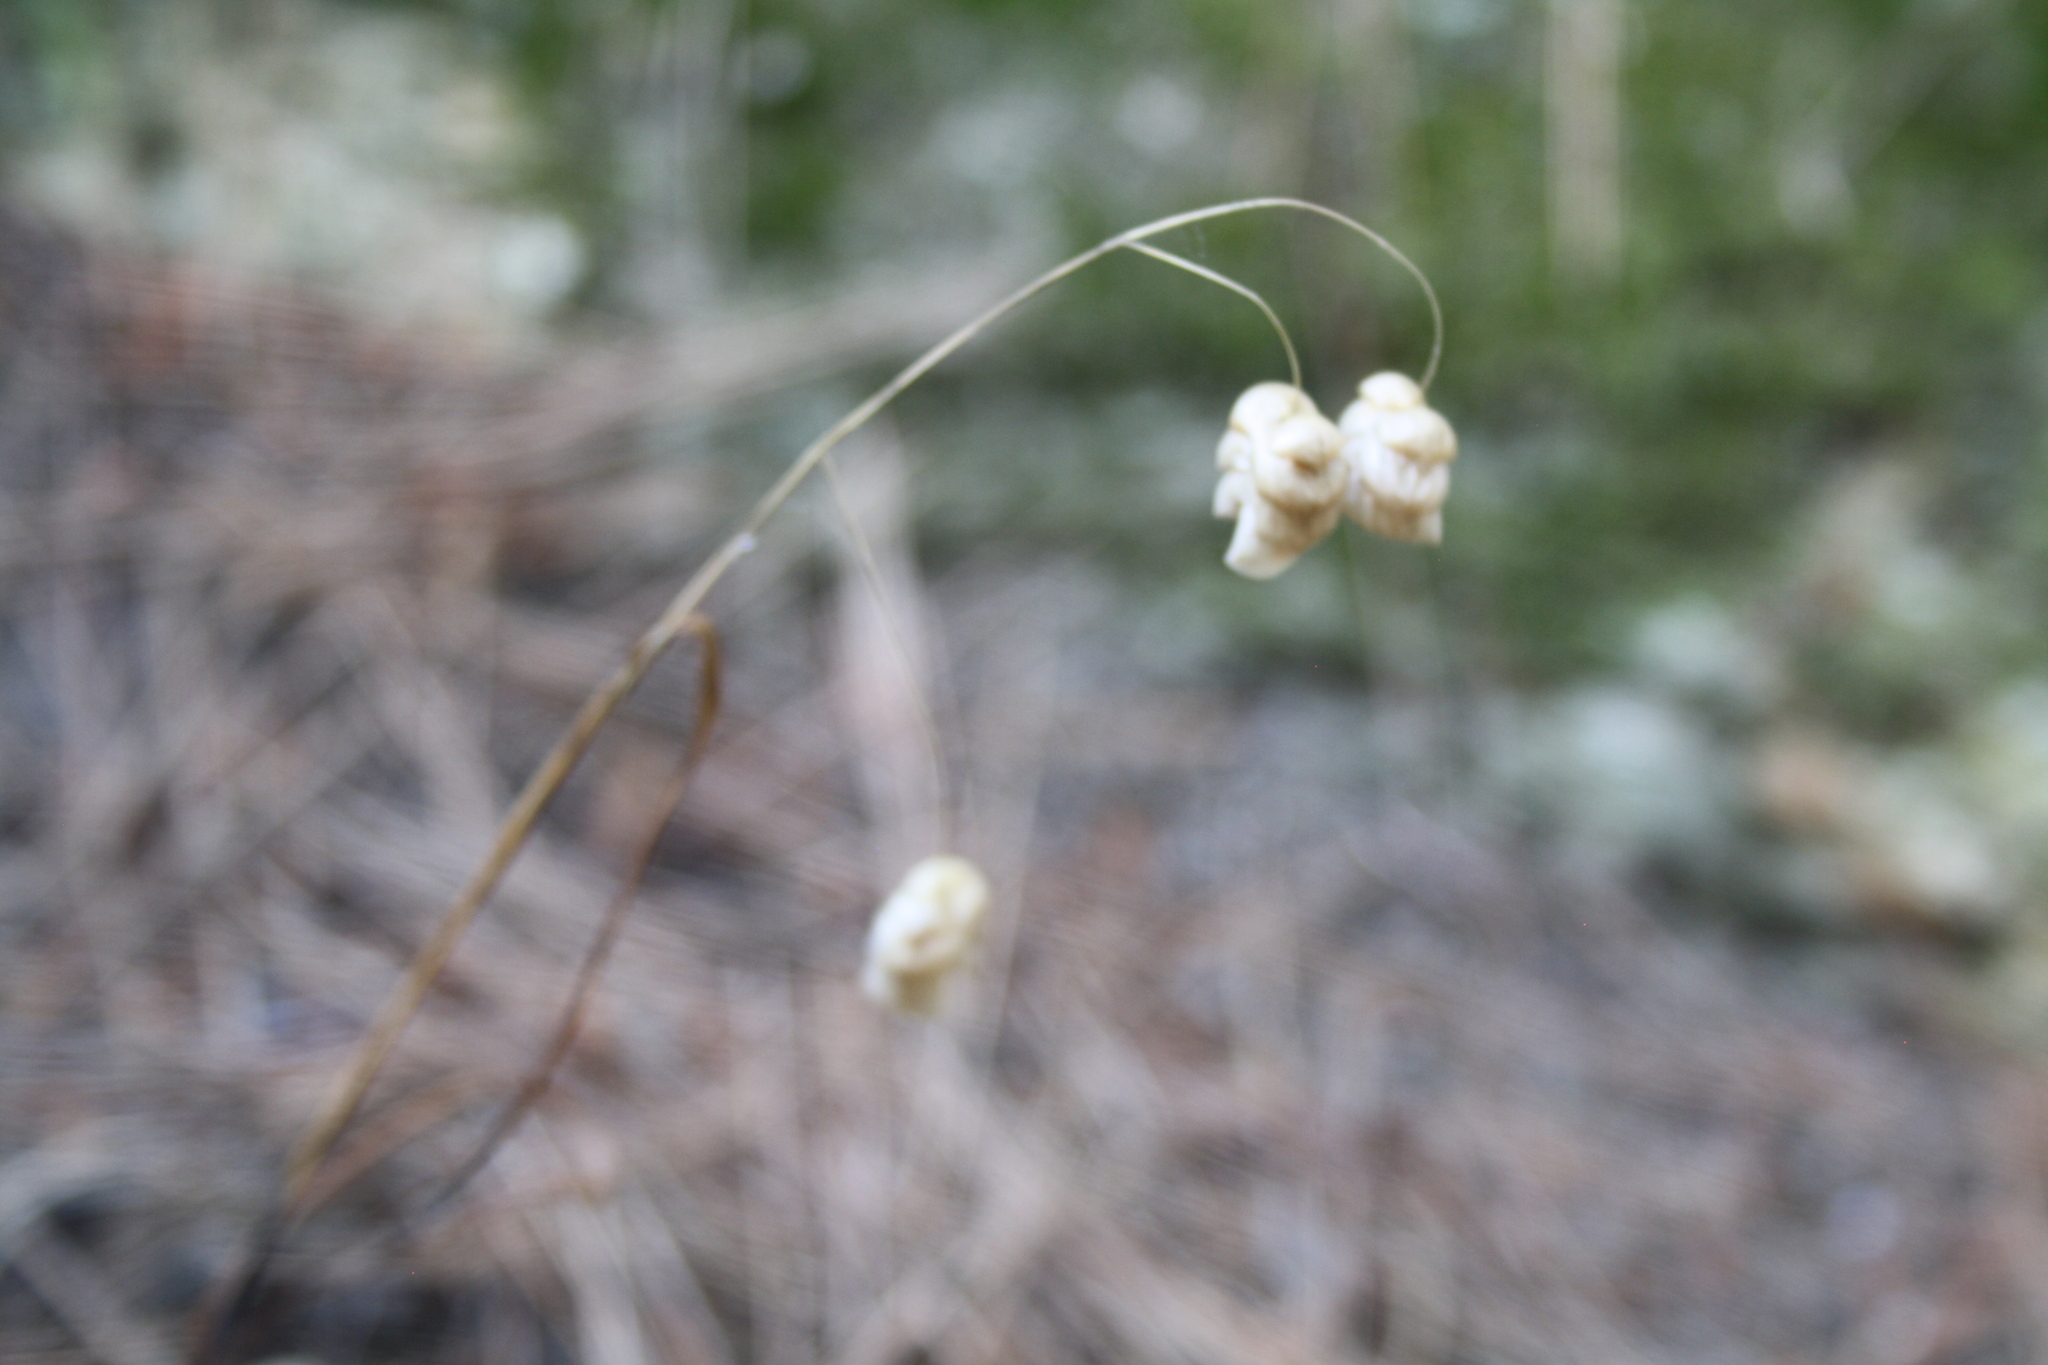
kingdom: Plantae
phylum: Tracheophyta
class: Liliopsida
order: Poales
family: Poaceae
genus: Briza
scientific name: Briza maxima
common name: Big quakinggrass
